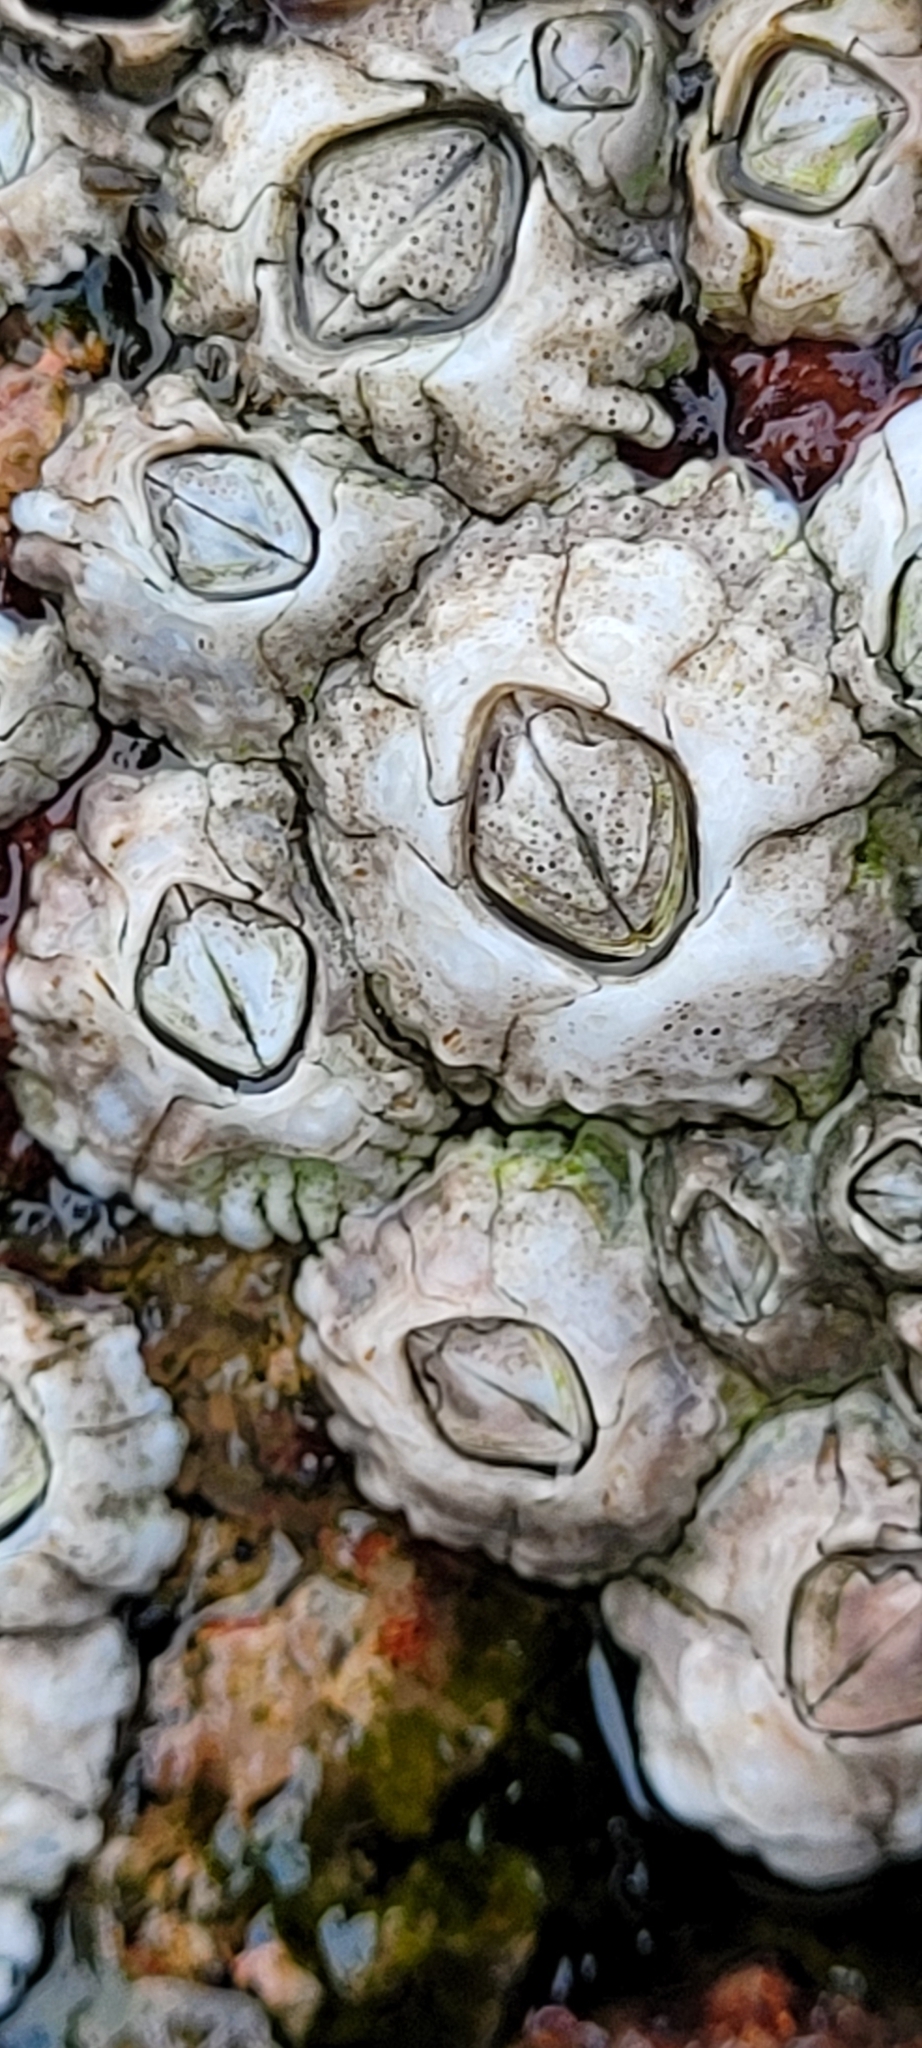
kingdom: Animalia
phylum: Arthropoda
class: Maxillopoda
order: Sessilia
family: Archaeobalanidae
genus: Semibalanus
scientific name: Semibalanus balanoides
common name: Acorn barnacle
